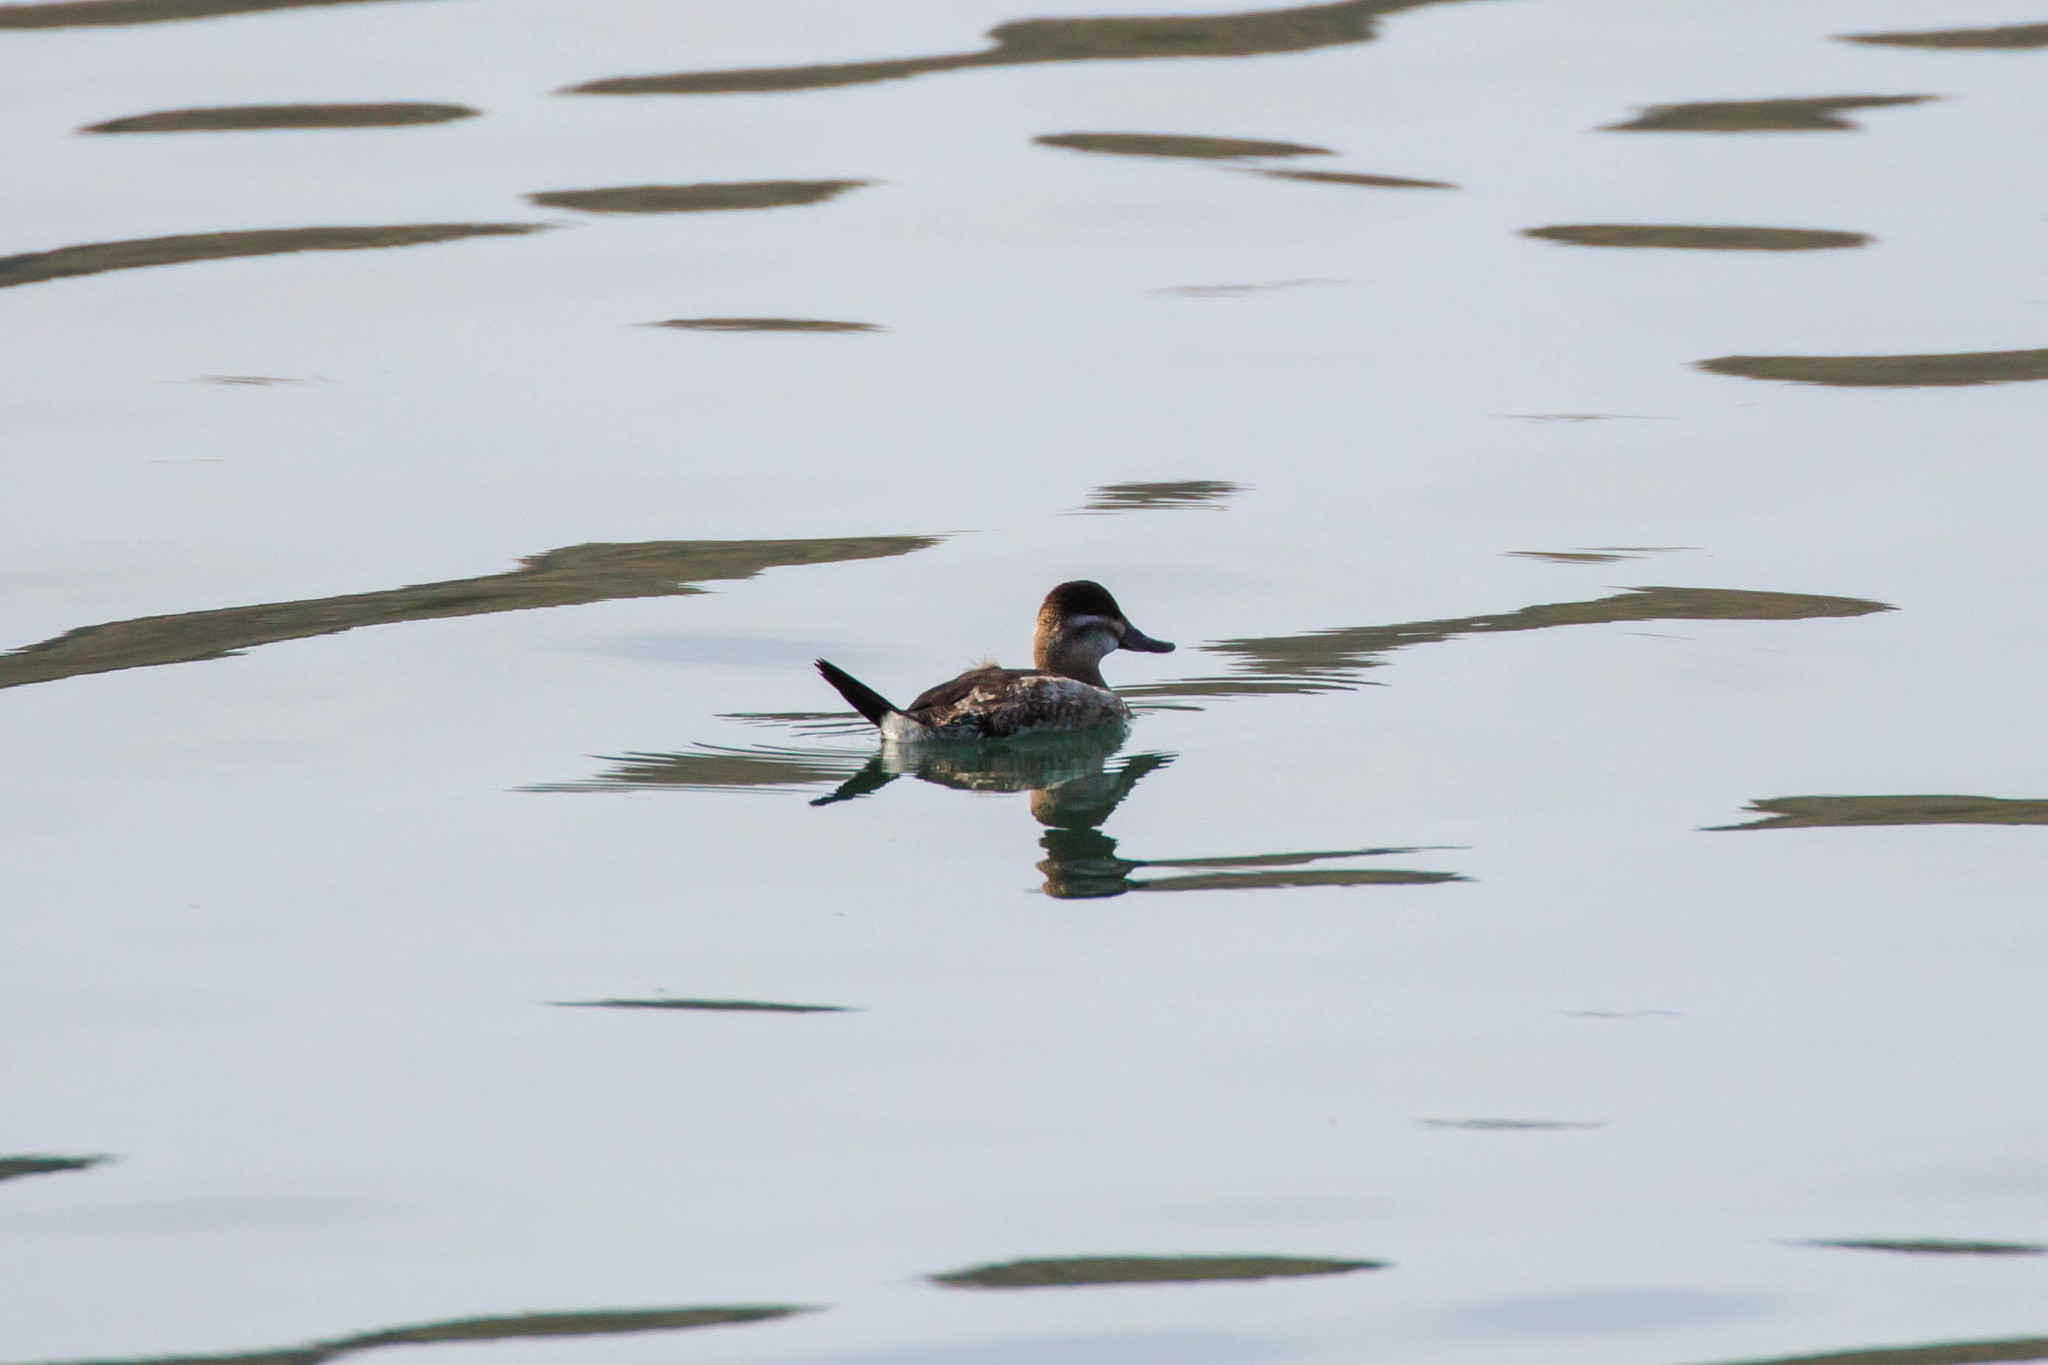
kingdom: Animalia
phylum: Chordata
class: Aves
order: Anseriformes
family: Anatidae
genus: Oxyura
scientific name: Oxyura jamaicensis
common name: Ruddy duck
